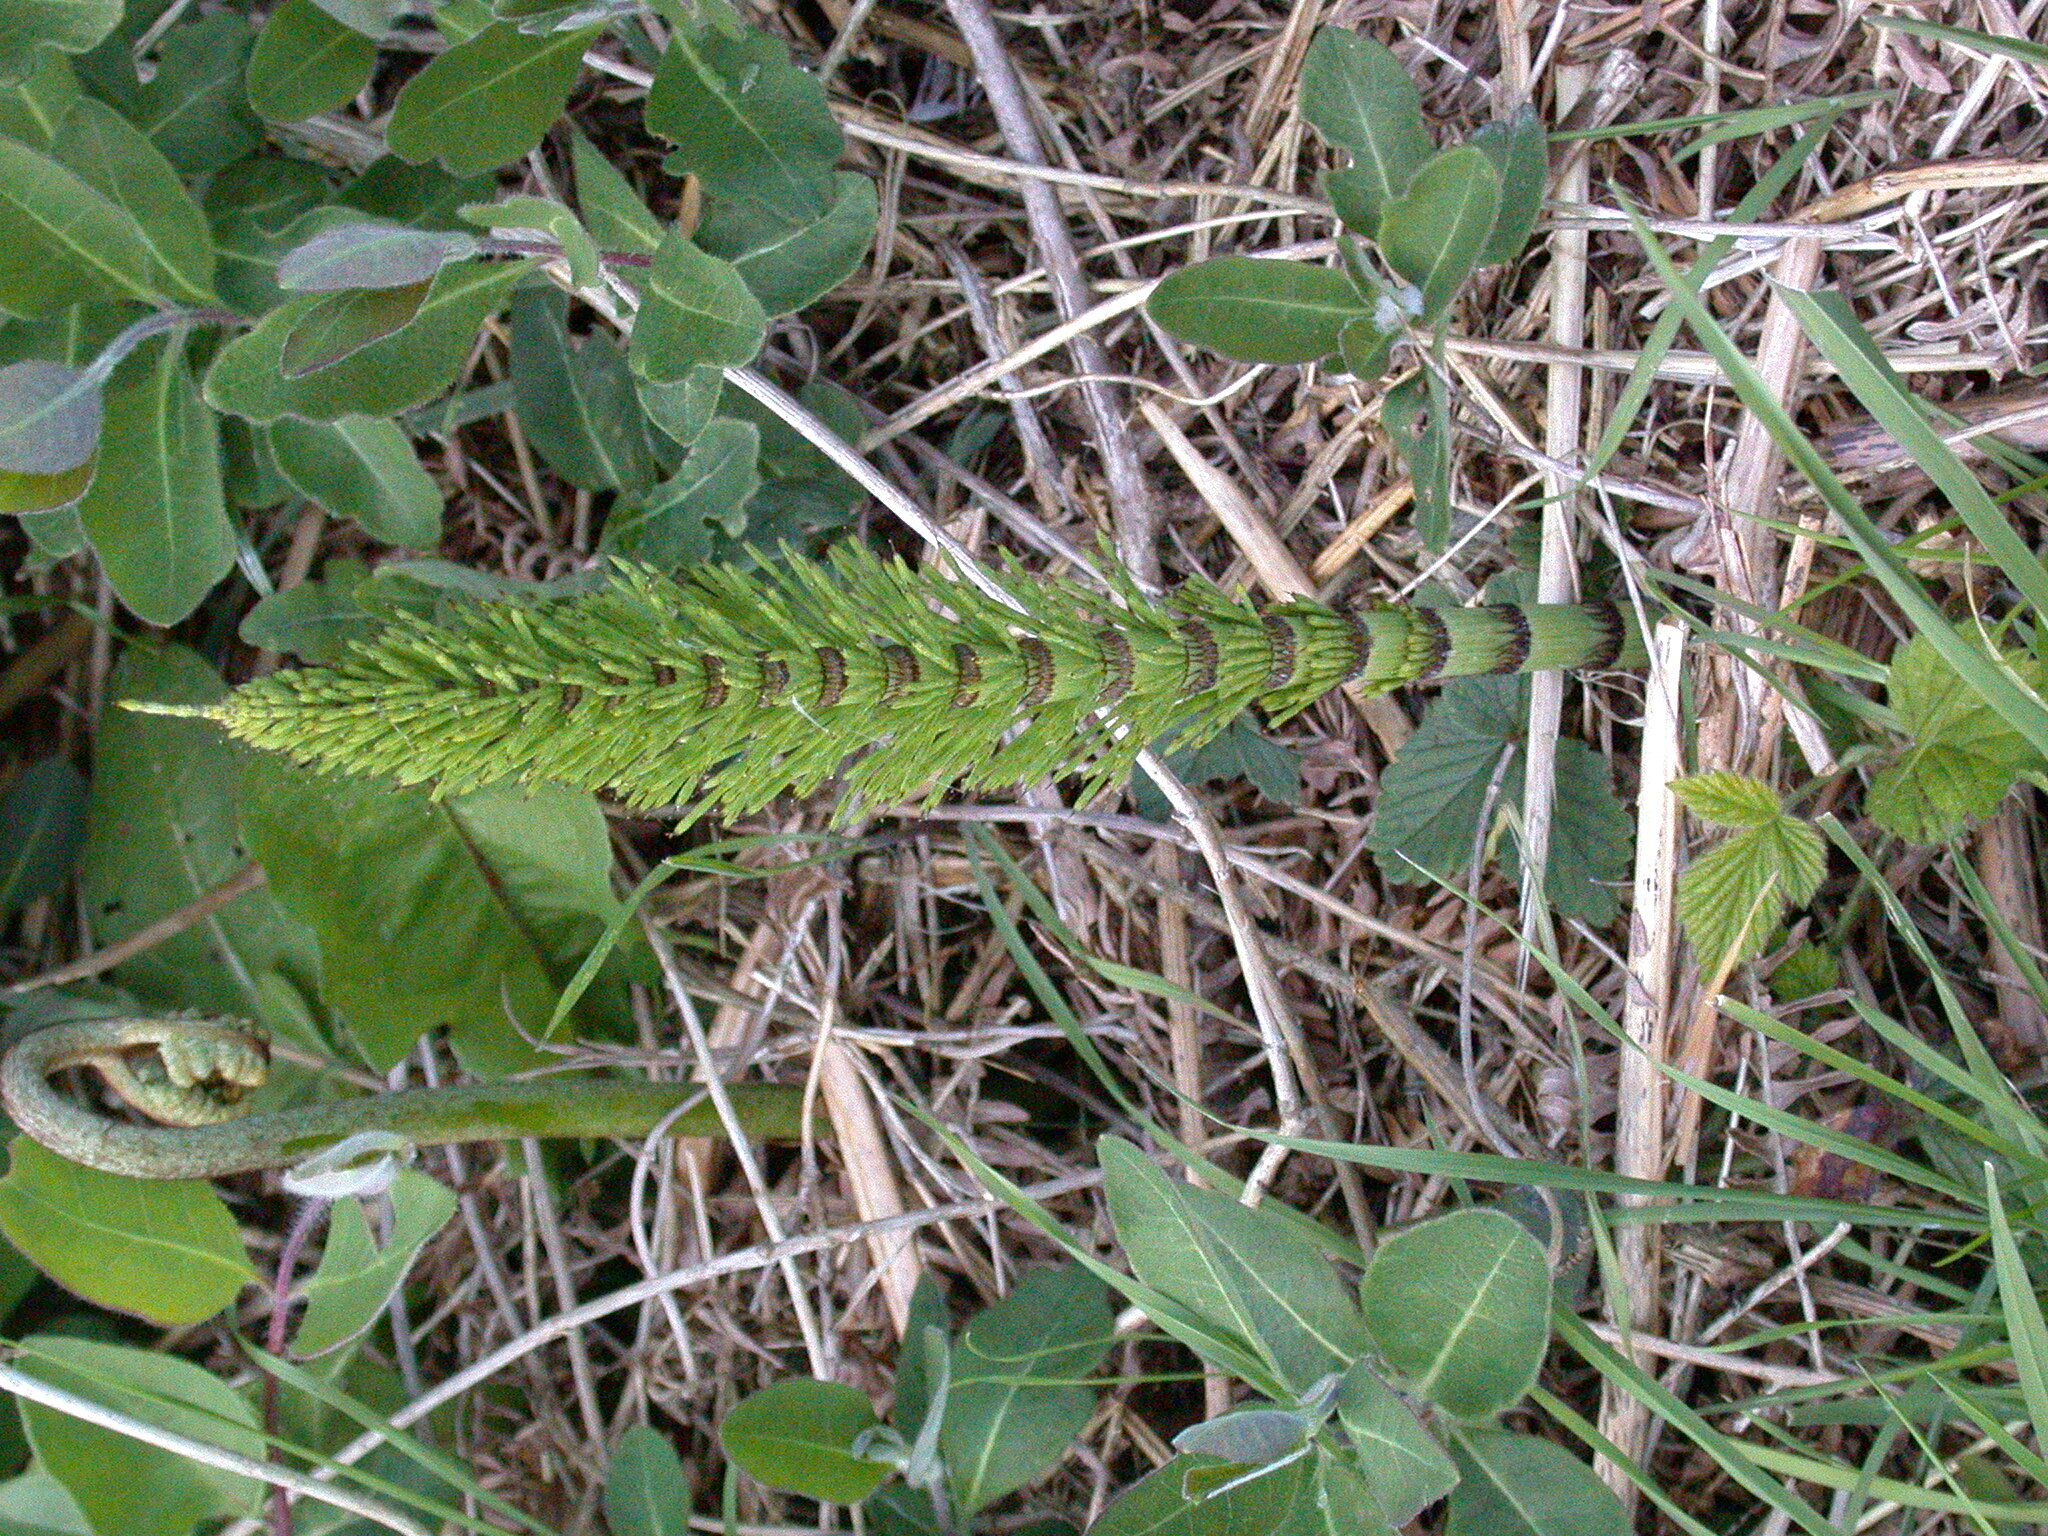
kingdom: Plantae
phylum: Tracheophyta
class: Polypodiopsida
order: Equisetales
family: Equisetaceae
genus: Equisetum
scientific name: Equisetum telmateia
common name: Great horsetail
